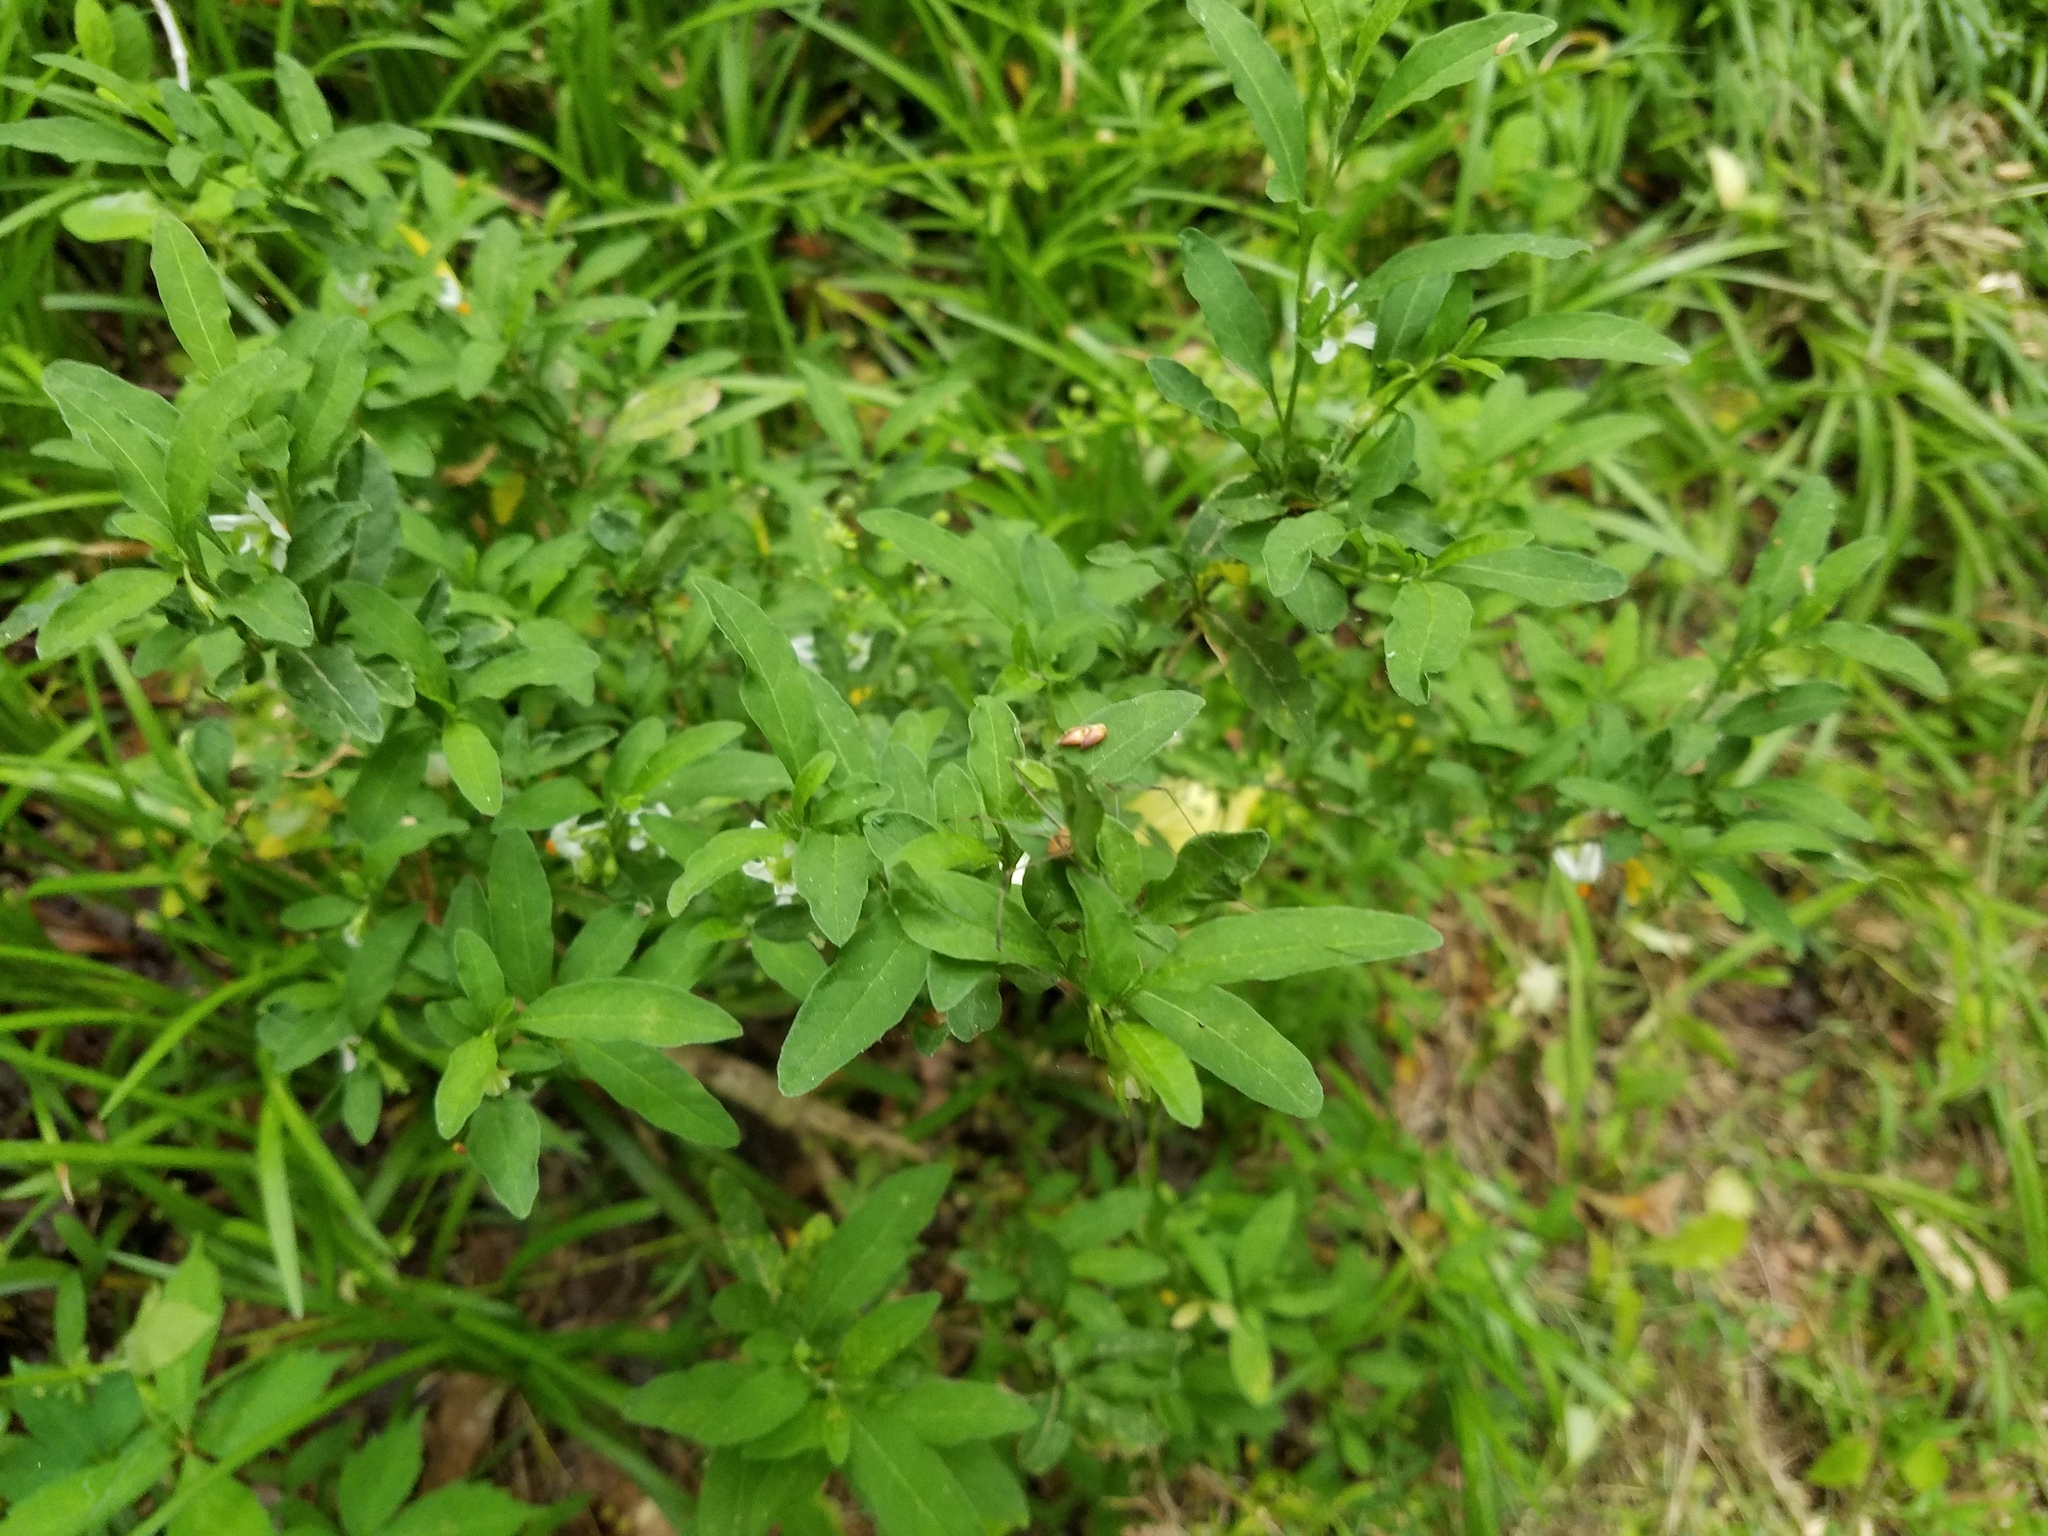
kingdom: Plantae
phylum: Tracheophyta
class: Magnoliopsida
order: Solanales
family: Solanaceae
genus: Solanum
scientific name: Solanum pseudocapsicum
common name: Jerusalem cherry
